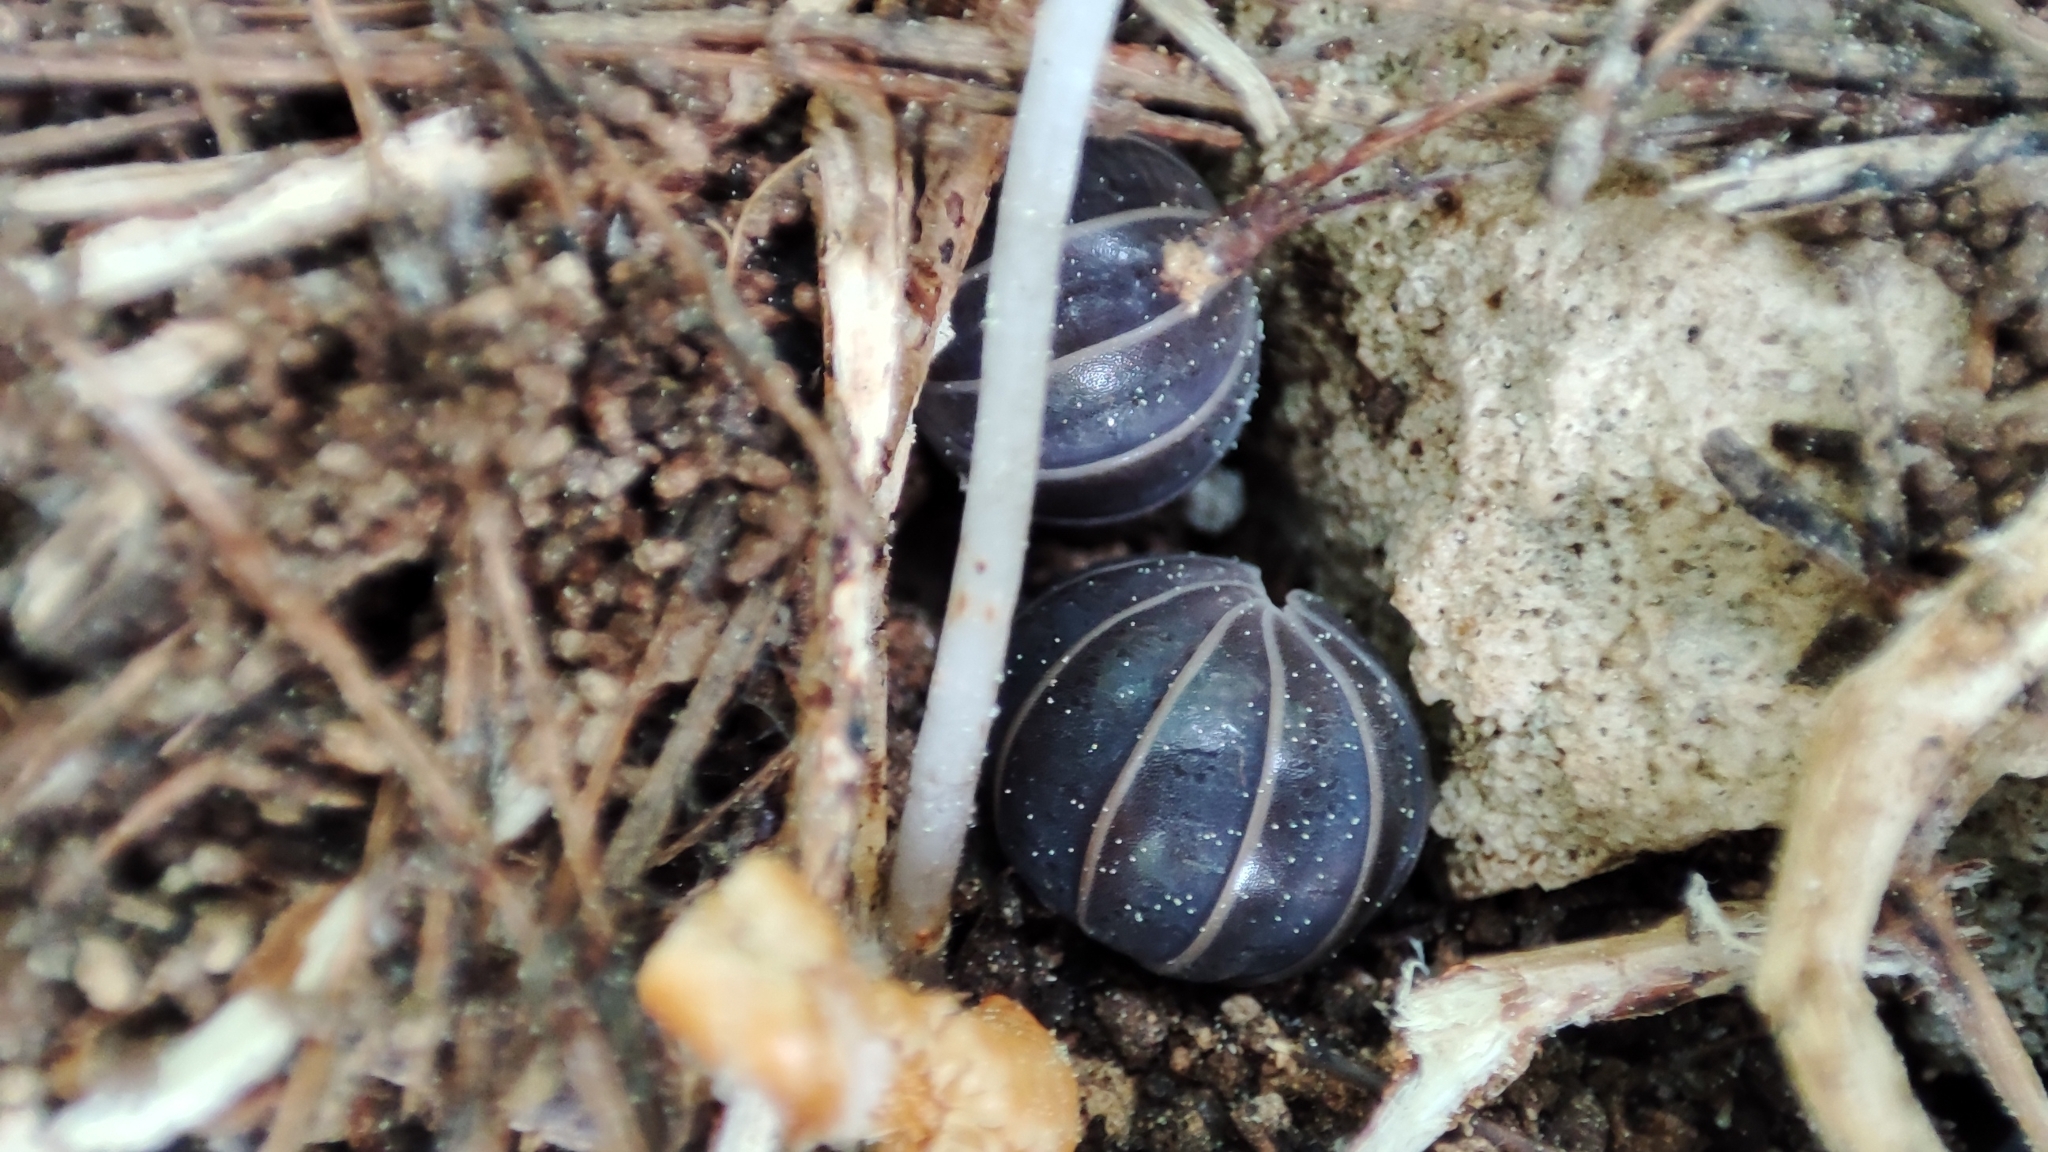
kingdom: Animalia
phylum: Arthropoda
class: Malacostraca
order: Isopoda
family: Armadillidae
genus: Armadillo
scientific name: Armadillo officinalis
